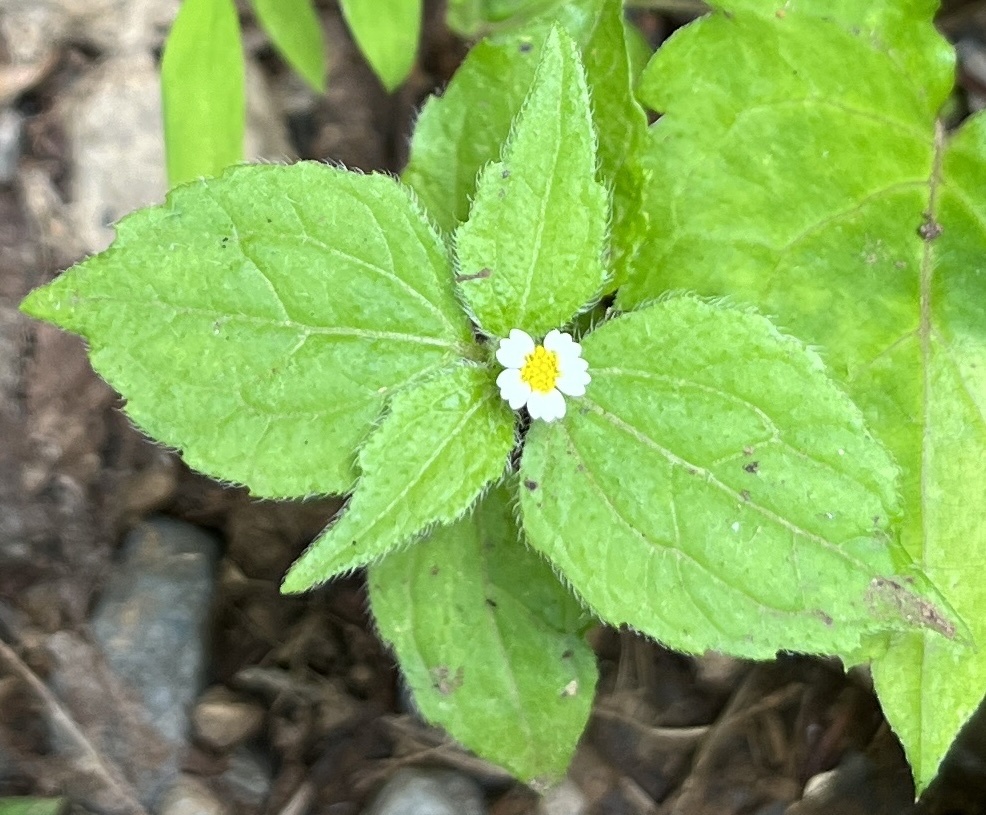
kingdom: Plantae
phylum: Tracheophyta
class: Magnoliopsida
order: Asterales
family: Asteraceae
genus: Galinsoga
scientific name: Galinsoga quadriradiata
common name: Shaggy soldier
